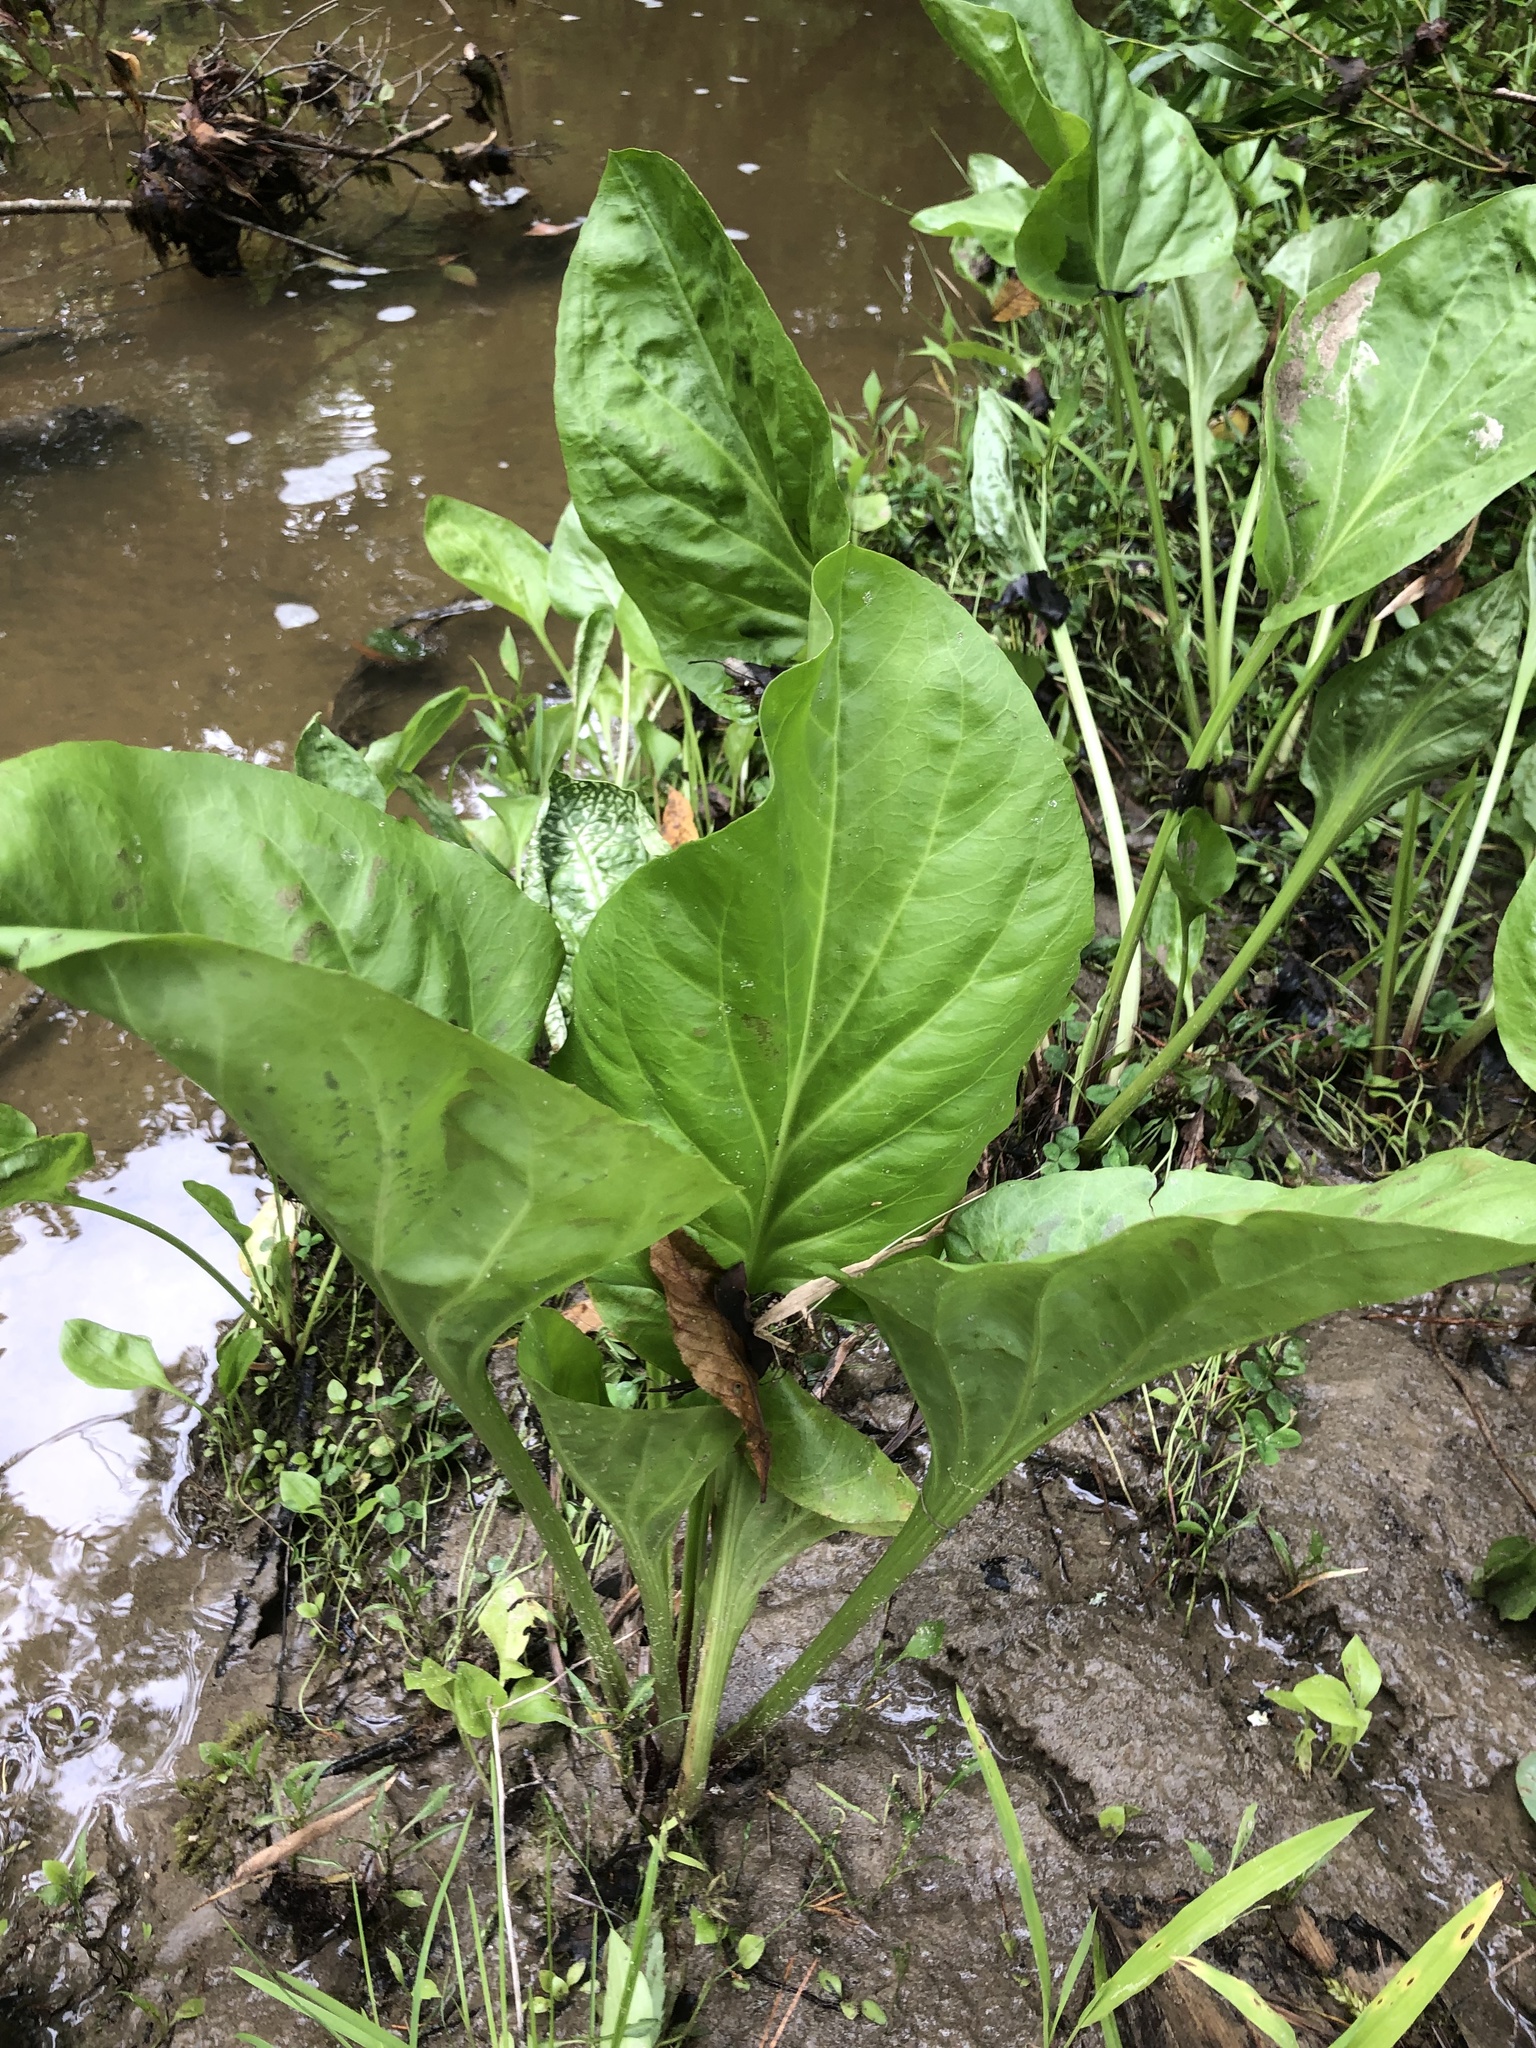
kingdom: Plantae
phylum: Tracheophyta
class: Magnoliopsida
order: Lamiales
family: Plantaginaceae
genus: Plantago
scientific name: Plantago cordata
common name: Kingroot
